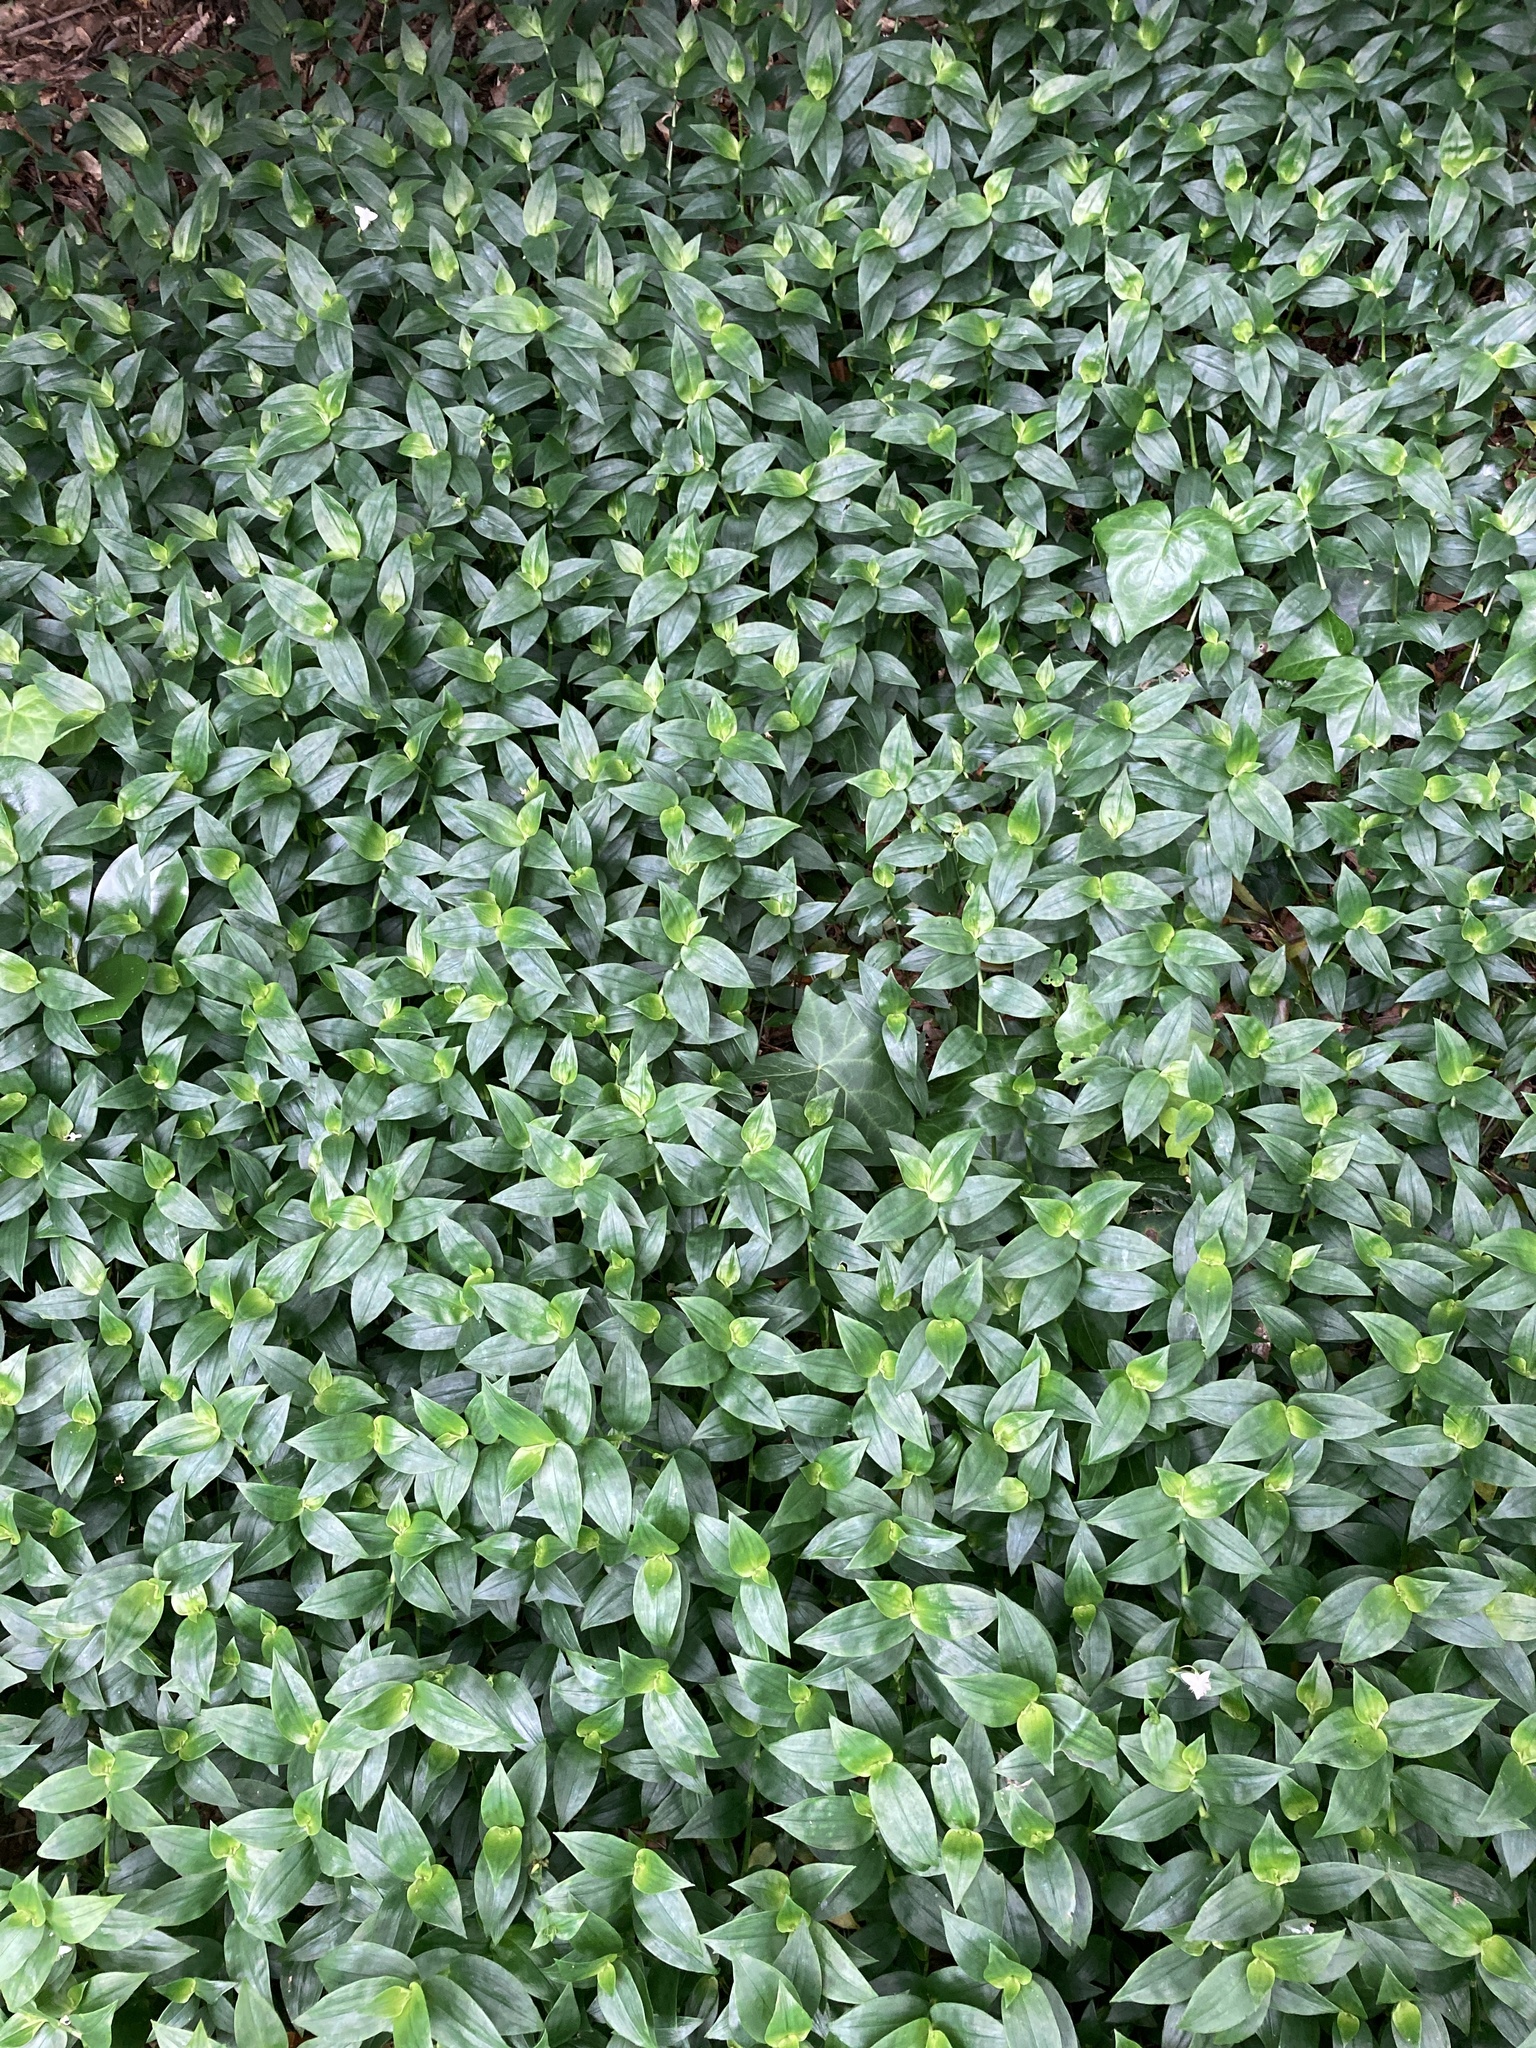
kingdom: Plantae
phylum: Tracheophyta
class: Liliopsida
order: Commelinales
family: Commelinaceae
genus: Tradescantia
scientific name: Tradescantia fluminensis
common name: Wandering-jew
